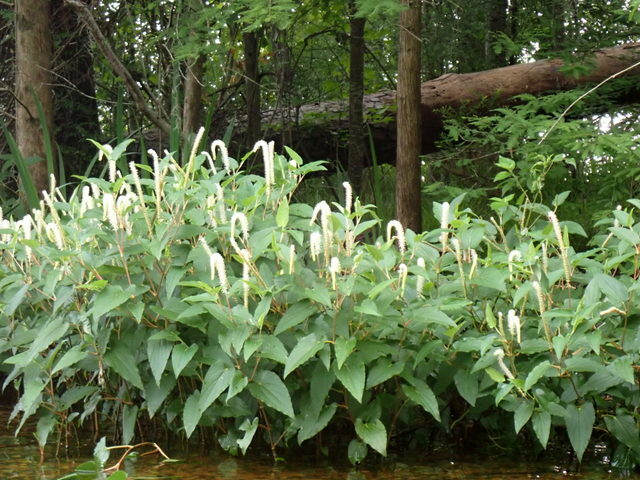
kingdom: Plantae
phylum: Tracheophyta
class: Magnoliopsida
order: Piperales
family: Saururaceae
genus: Saururus
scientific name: Saururus cernuus
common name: Lizard's-tail
